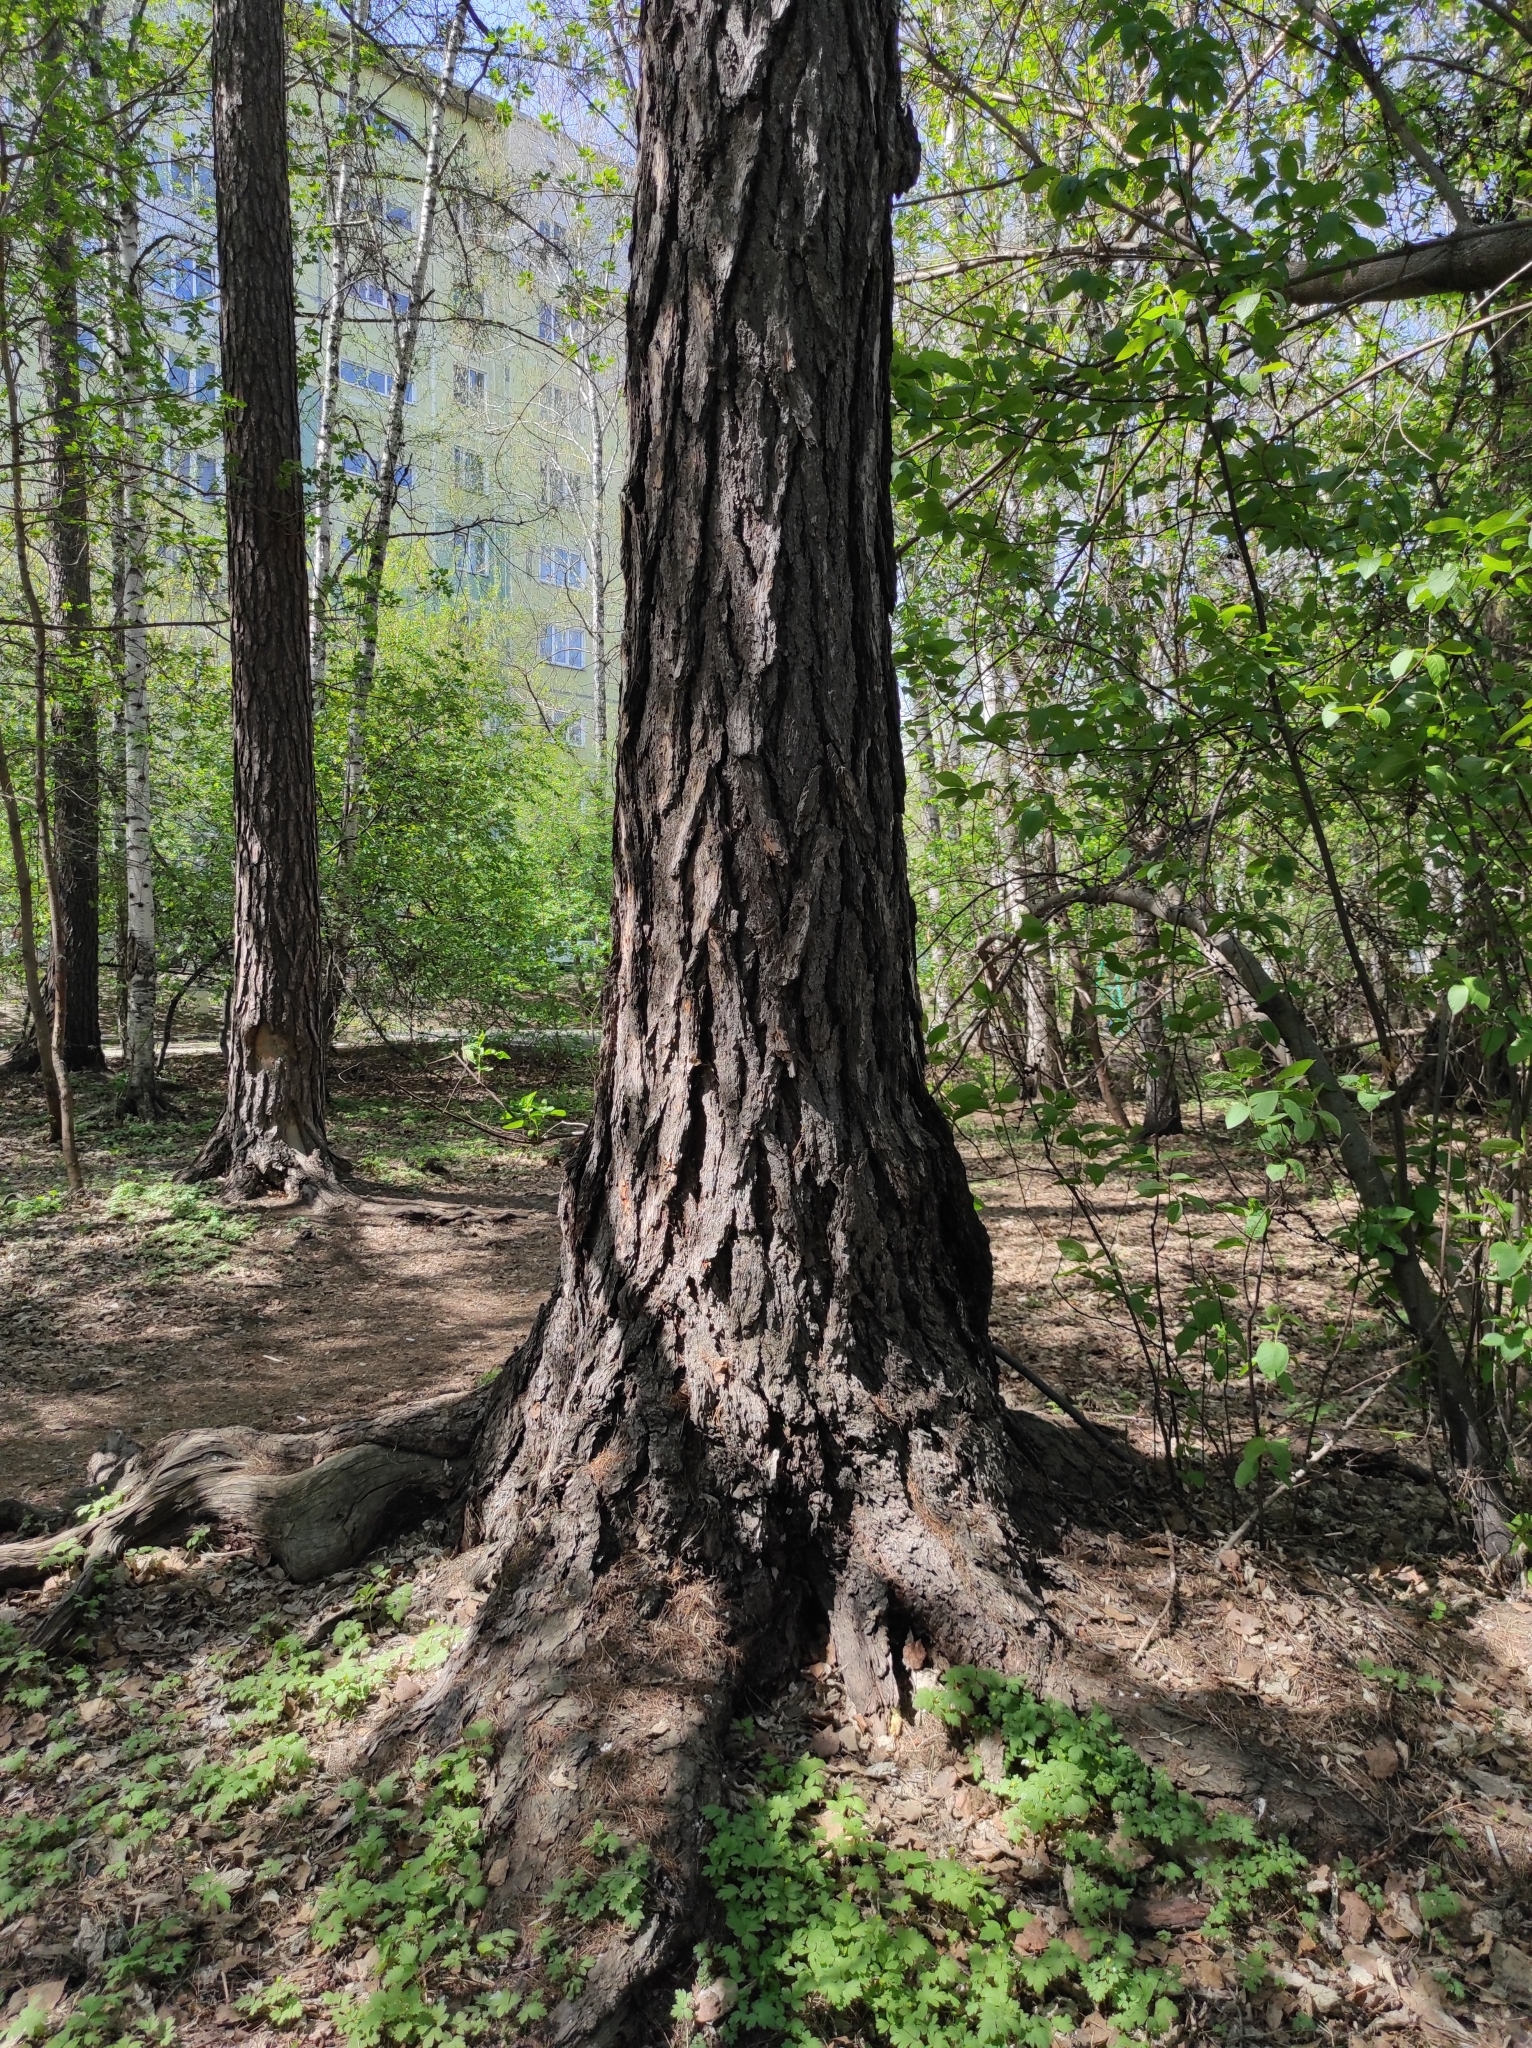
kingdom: Plantae
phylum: Tracheophyta
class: Magnoliopsida
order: Dipsacales
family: Viburnaceae
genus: Adoxa
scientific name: Adoxa moschatellina
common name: Moschatel
